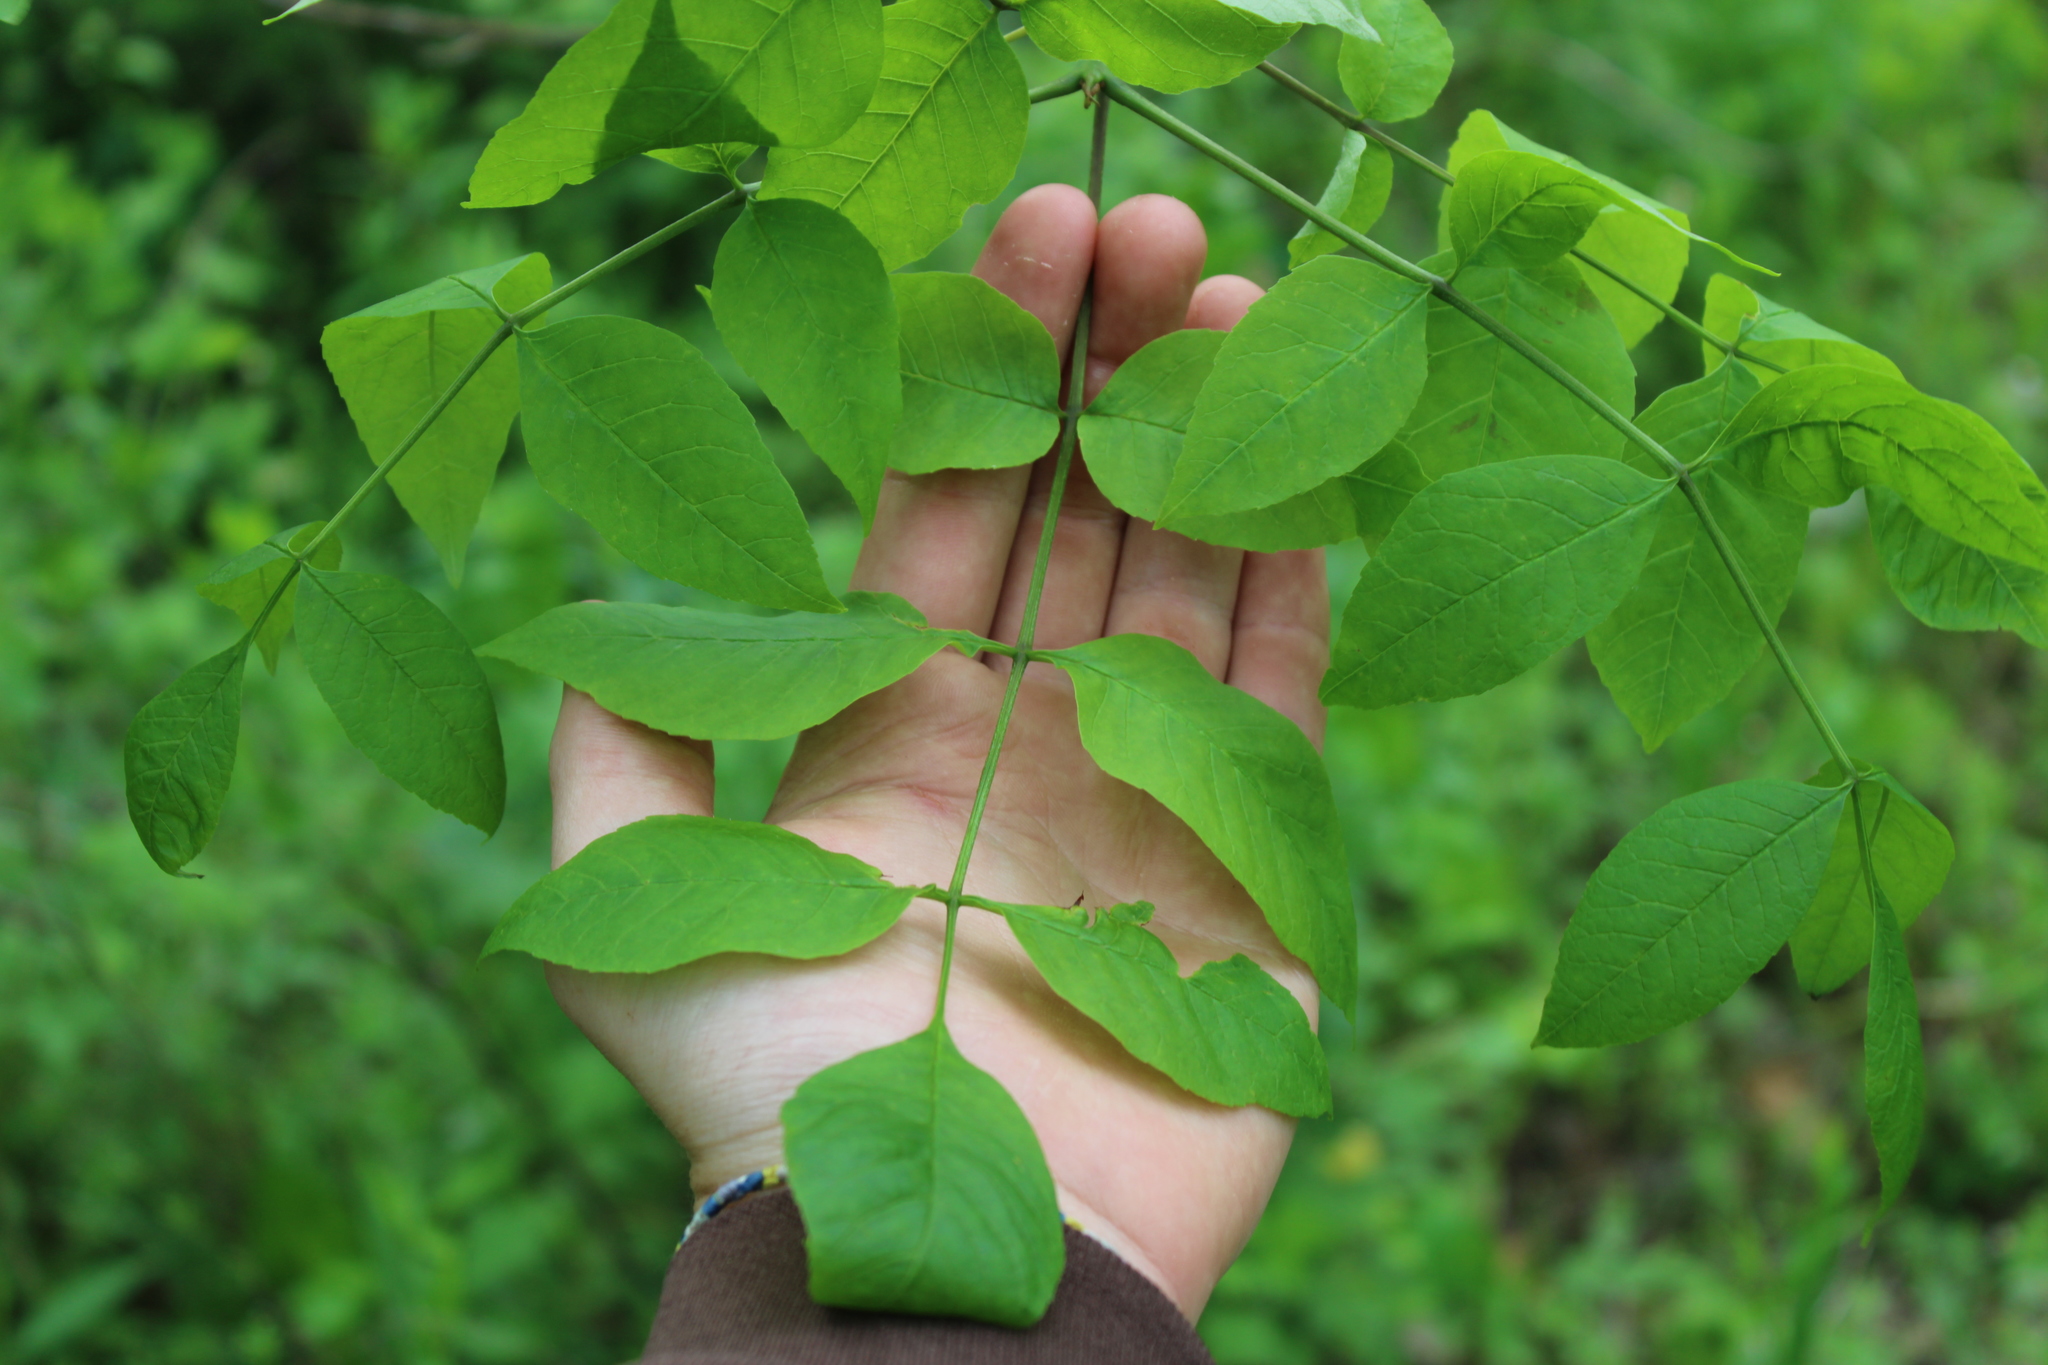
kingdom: Plantae
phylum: Tracheophyta
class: Magnoliopsida
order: Lamiales
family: Oleaceae
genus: Fraxinus
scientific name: Fraxinus pennsylvanica
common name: Green ash
